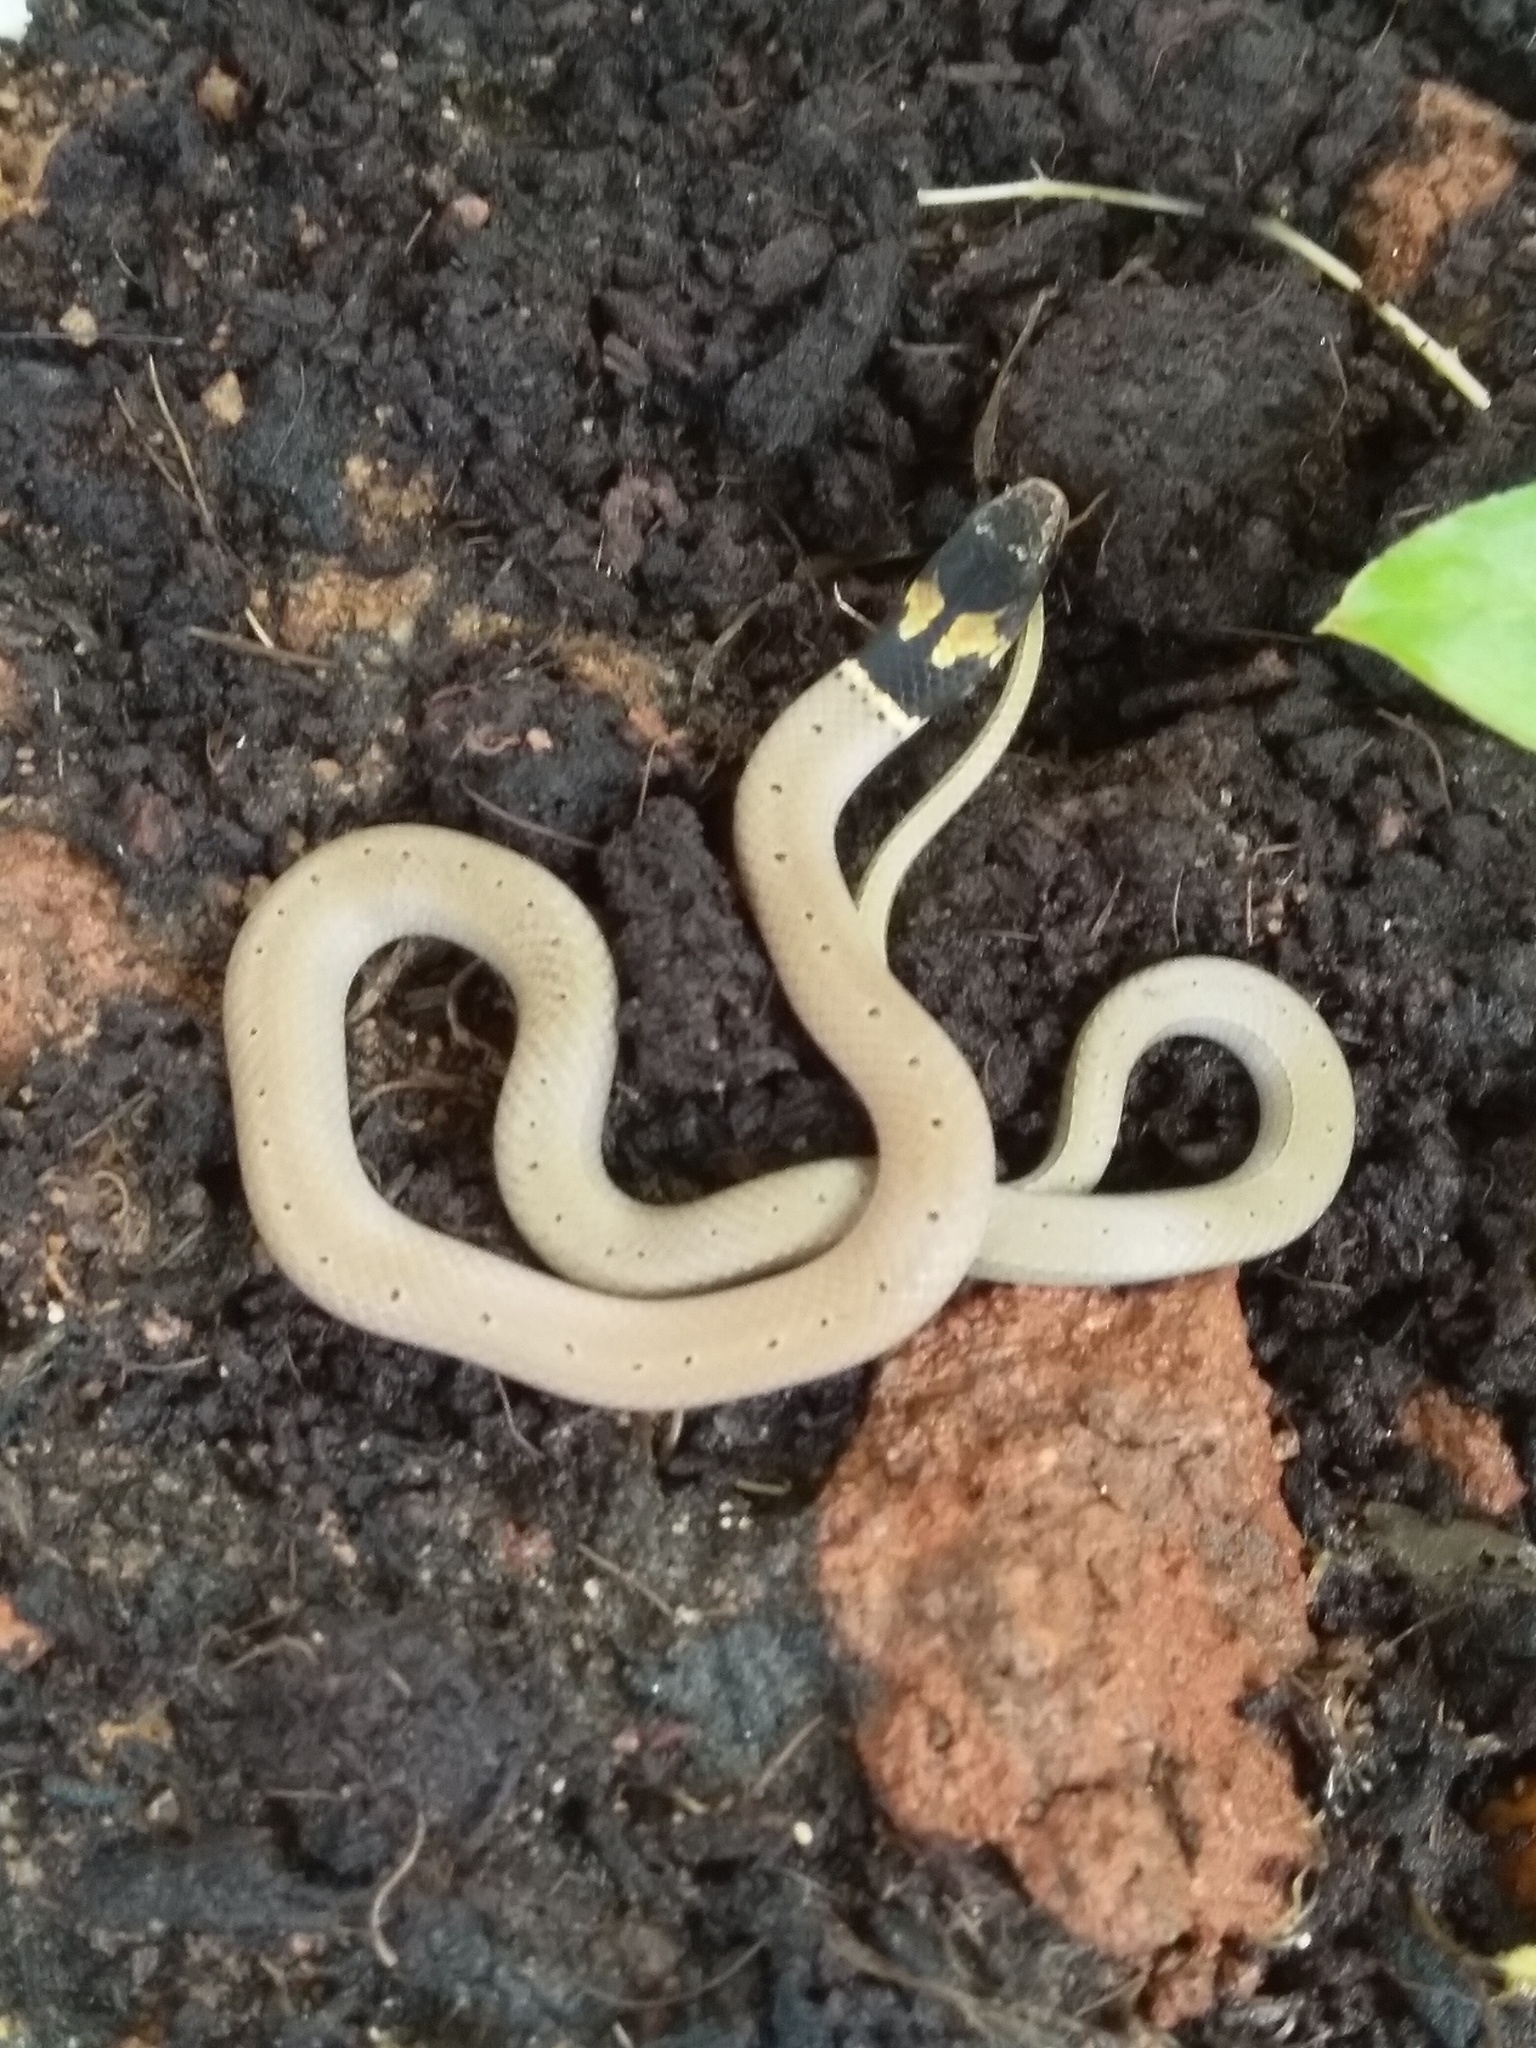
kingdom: Animalia
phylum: Chordata
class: Squamata
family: Colubridae
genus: Sibynophis
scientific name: Sibynophis subpunctatus
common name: Black-headed snake
